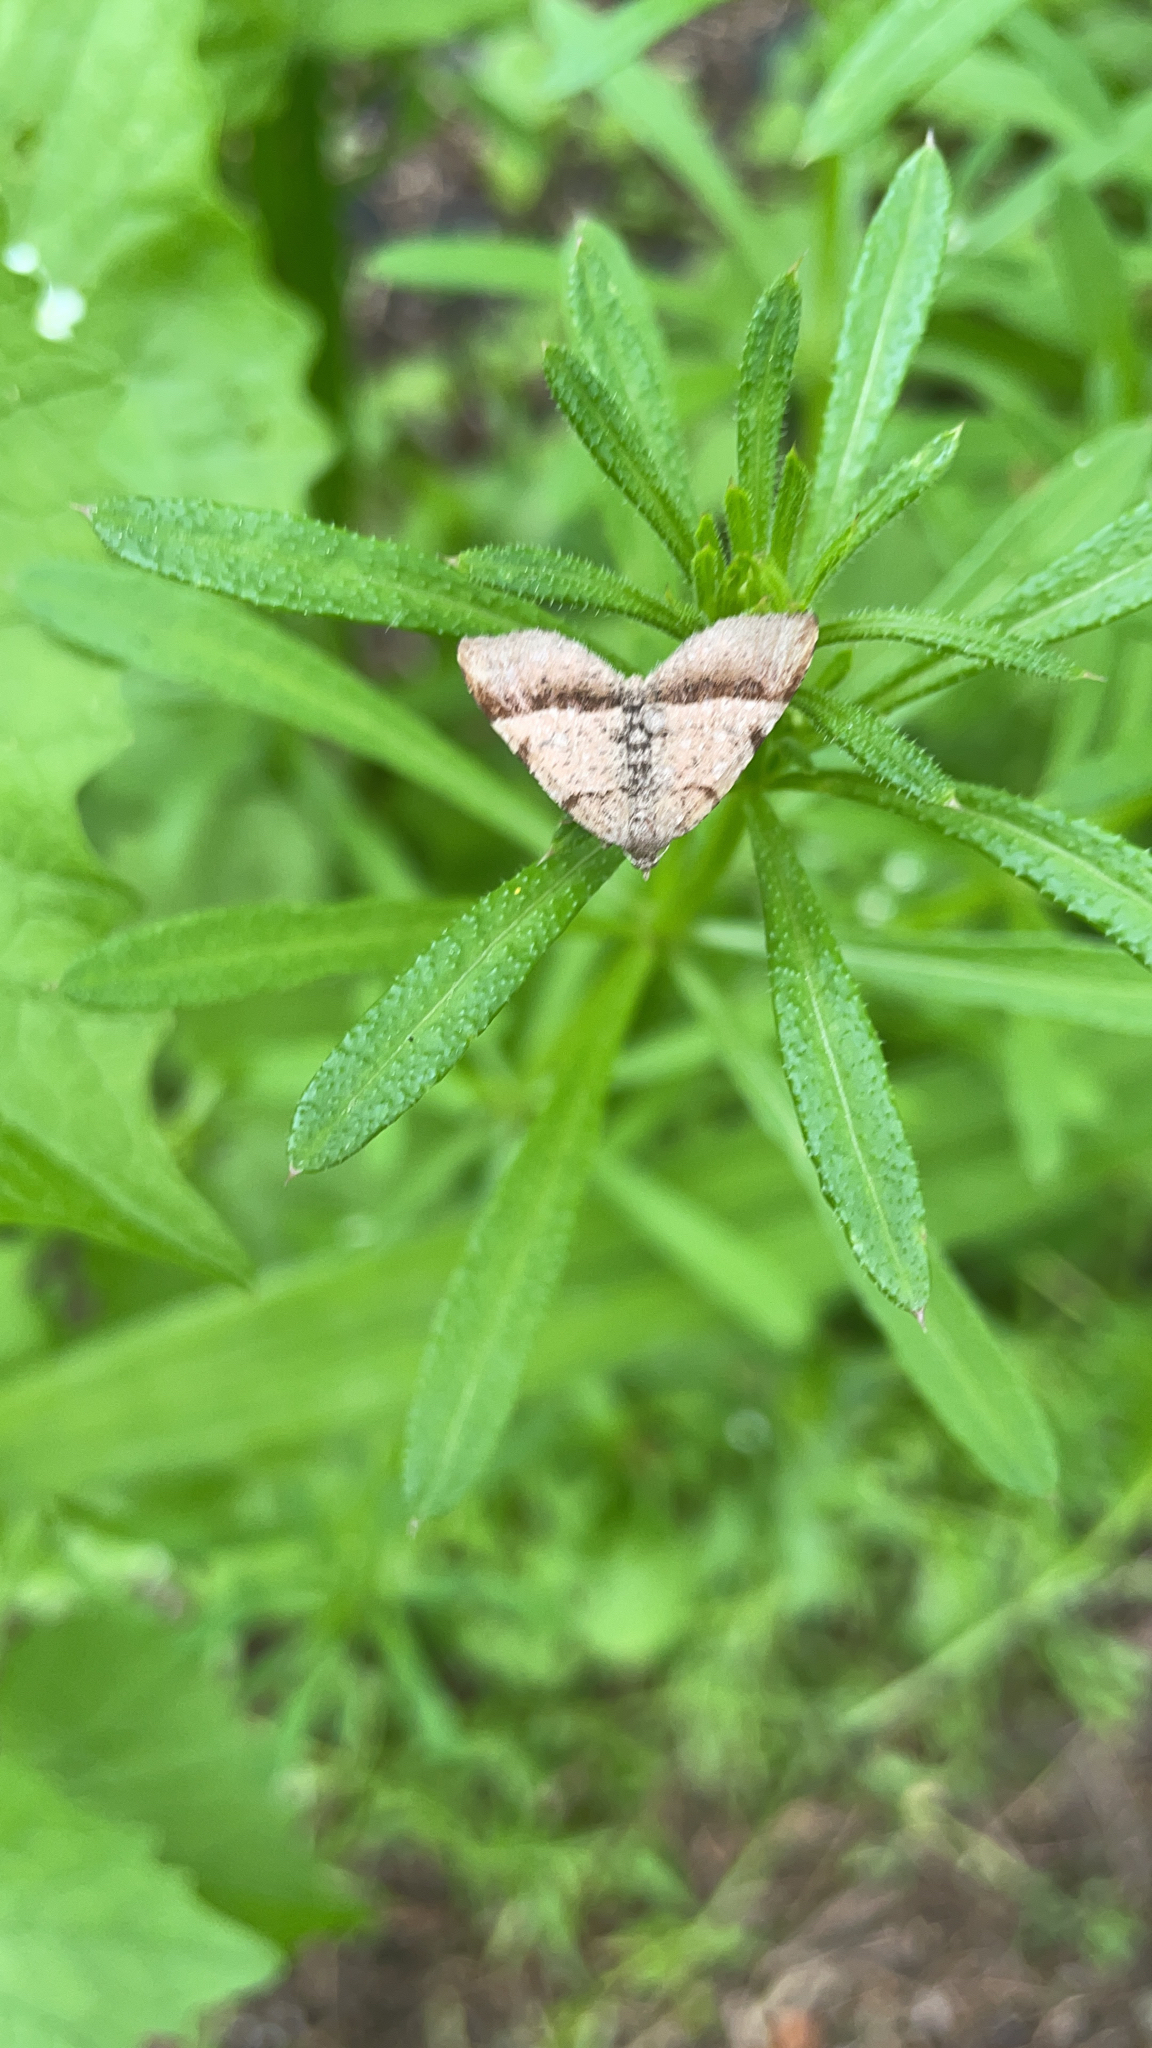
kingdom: Animalia
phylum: Arthropoda
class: Insecta
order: Lepidoptera
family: Geometridae
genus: Mellilla
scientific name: Mellilla xanthometata
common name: Orange wing moth
